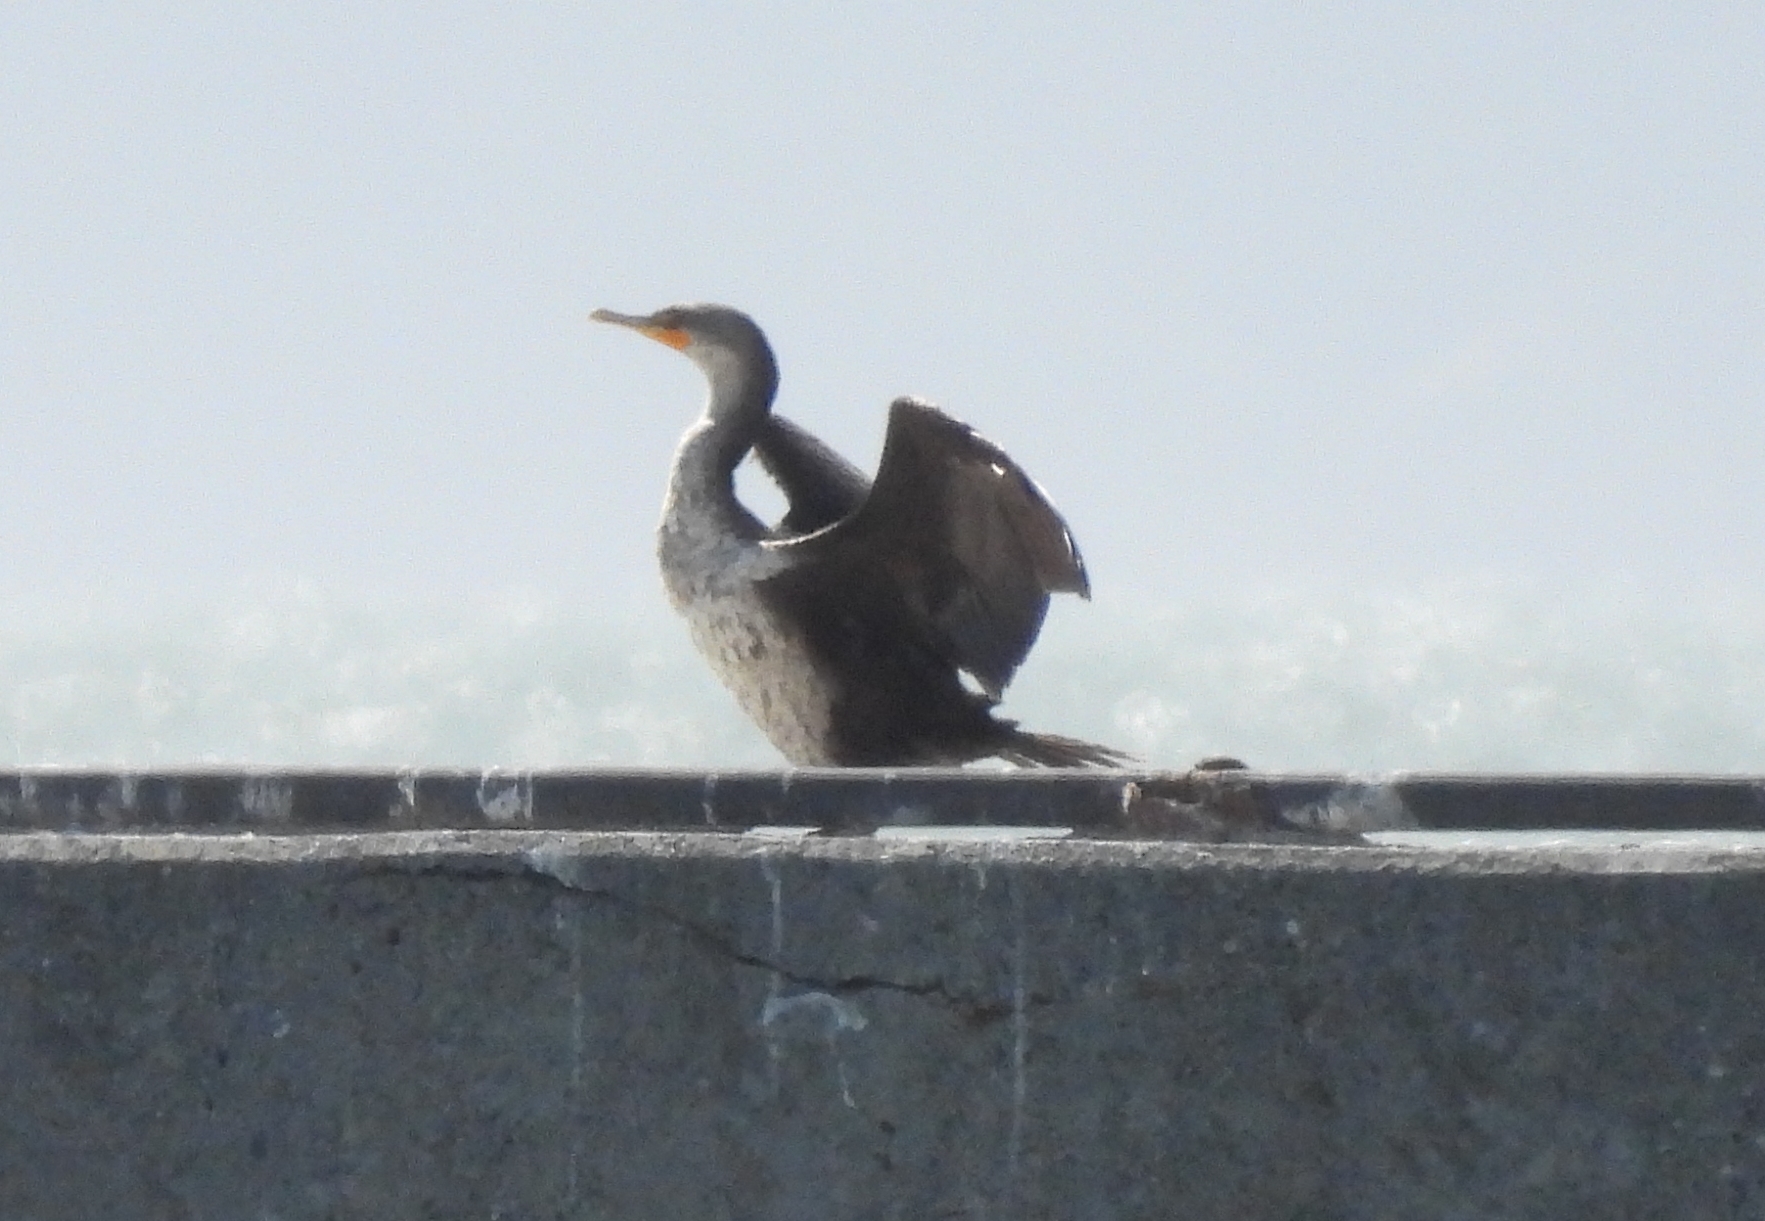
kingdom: Animalia
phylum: Chordata
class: Aves
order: Suliformes
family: Phalacrocoracidae
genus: Phalacrocorax
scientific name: Phalacrocorax auritus
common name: Double-crested cormorant
